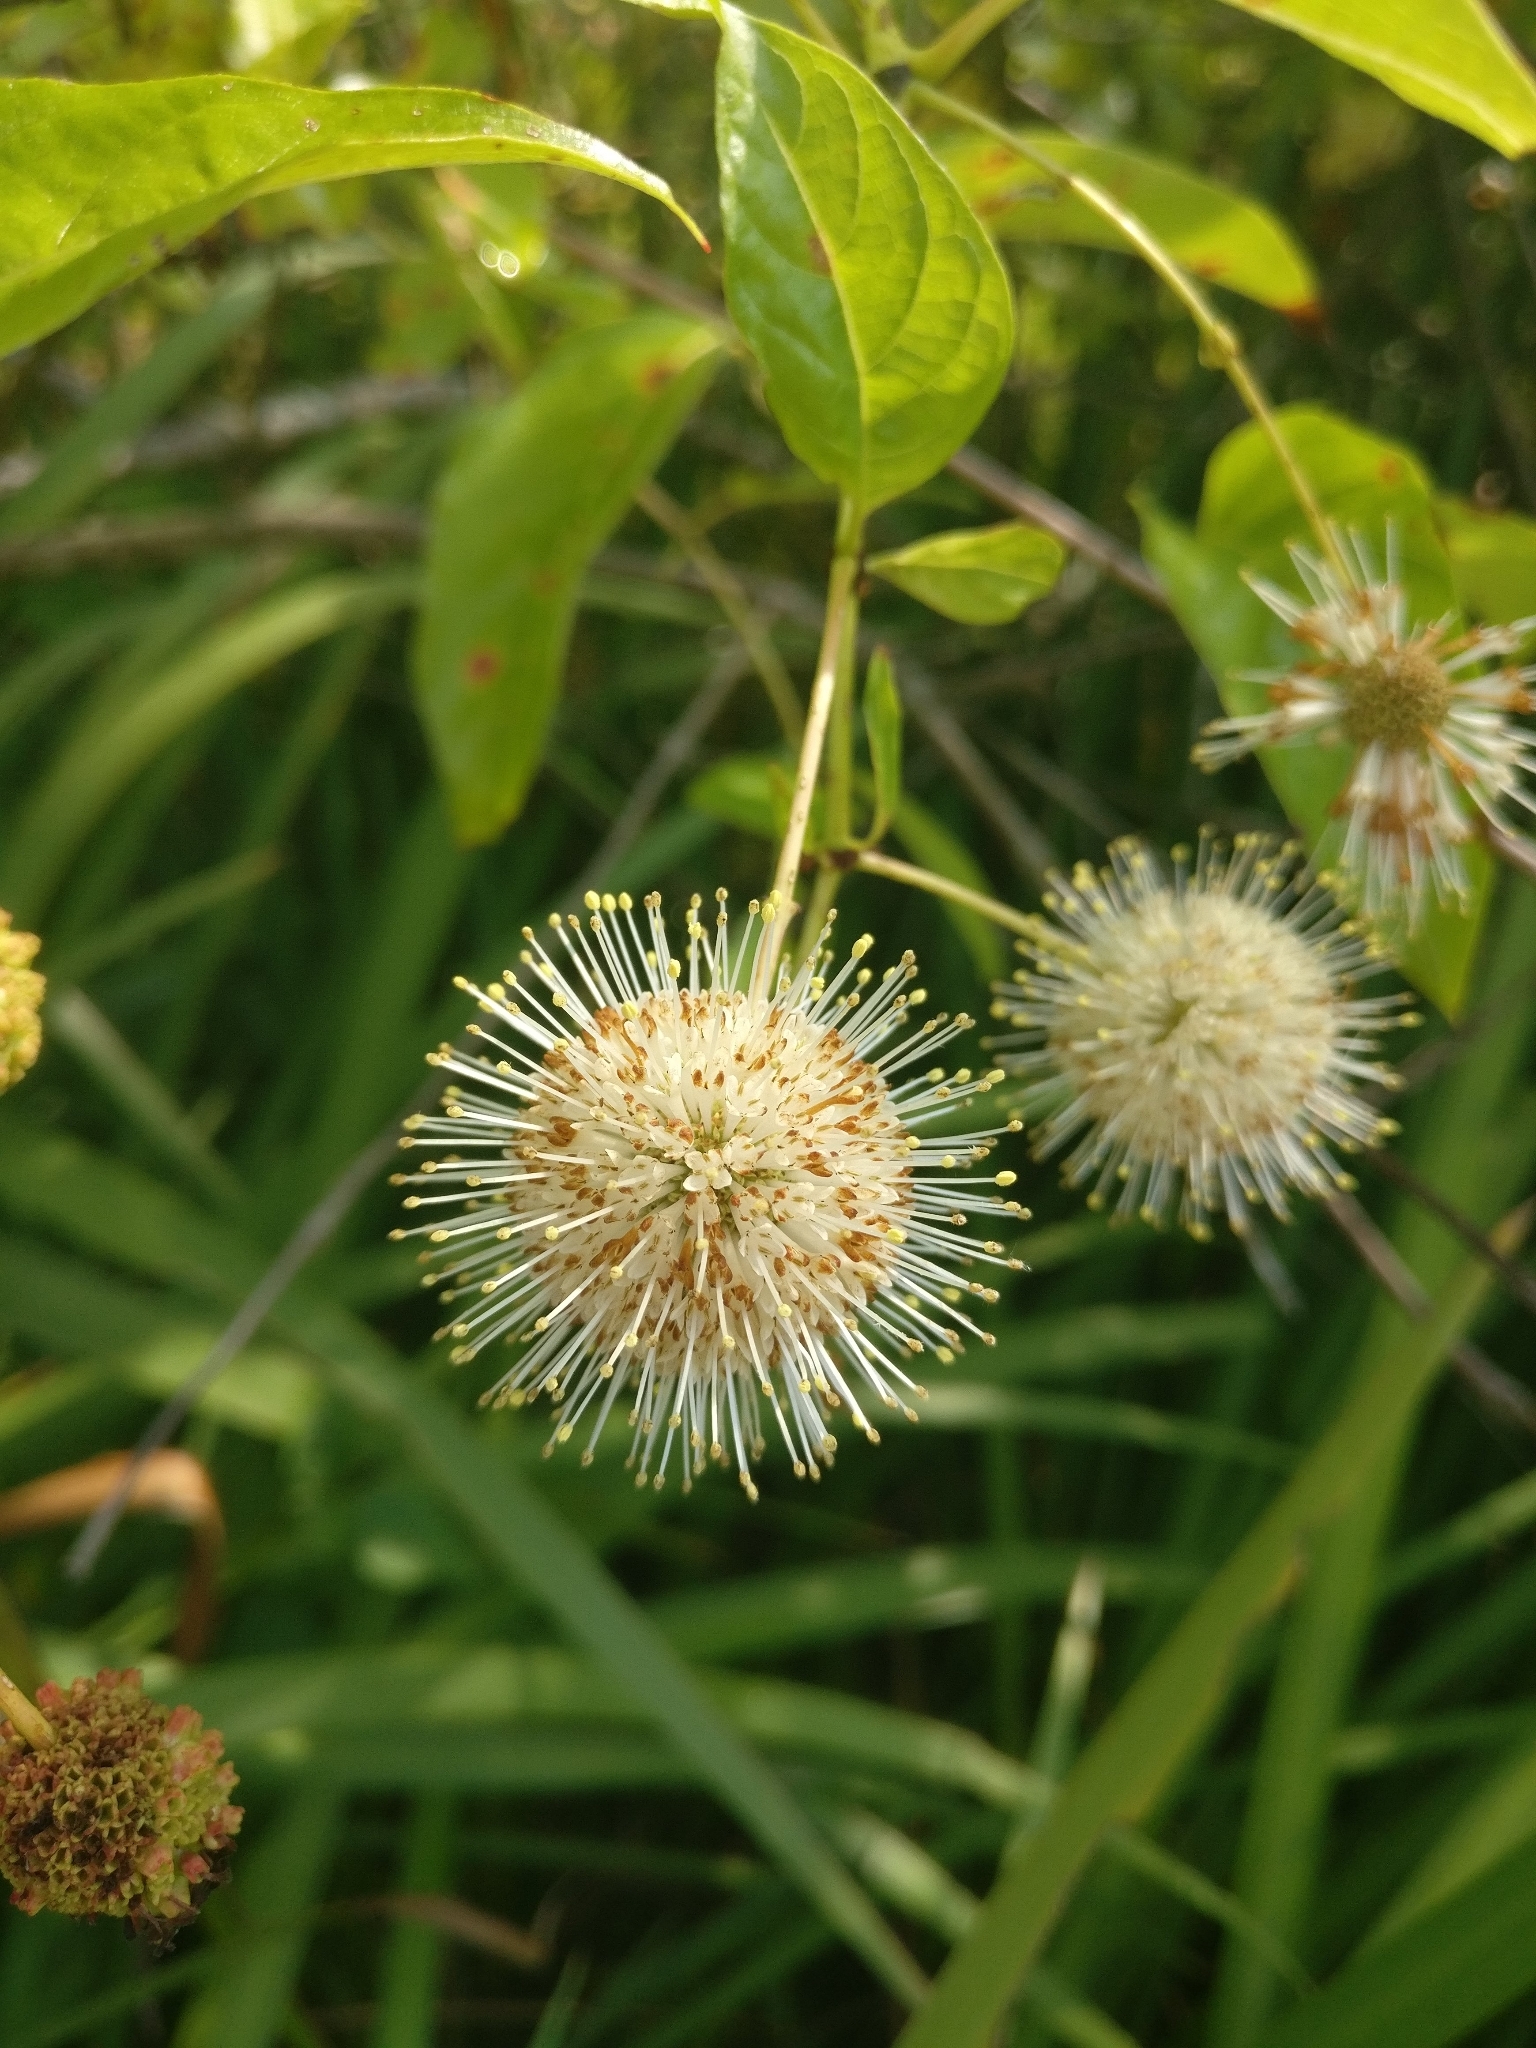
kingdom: Plantae
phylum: Tracheophyta
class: Magnoliopsida
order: Gentianales
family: Rubiaceae
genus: Cephalanthus
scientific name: Cephalanthus occidentalis
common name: Button-willow
